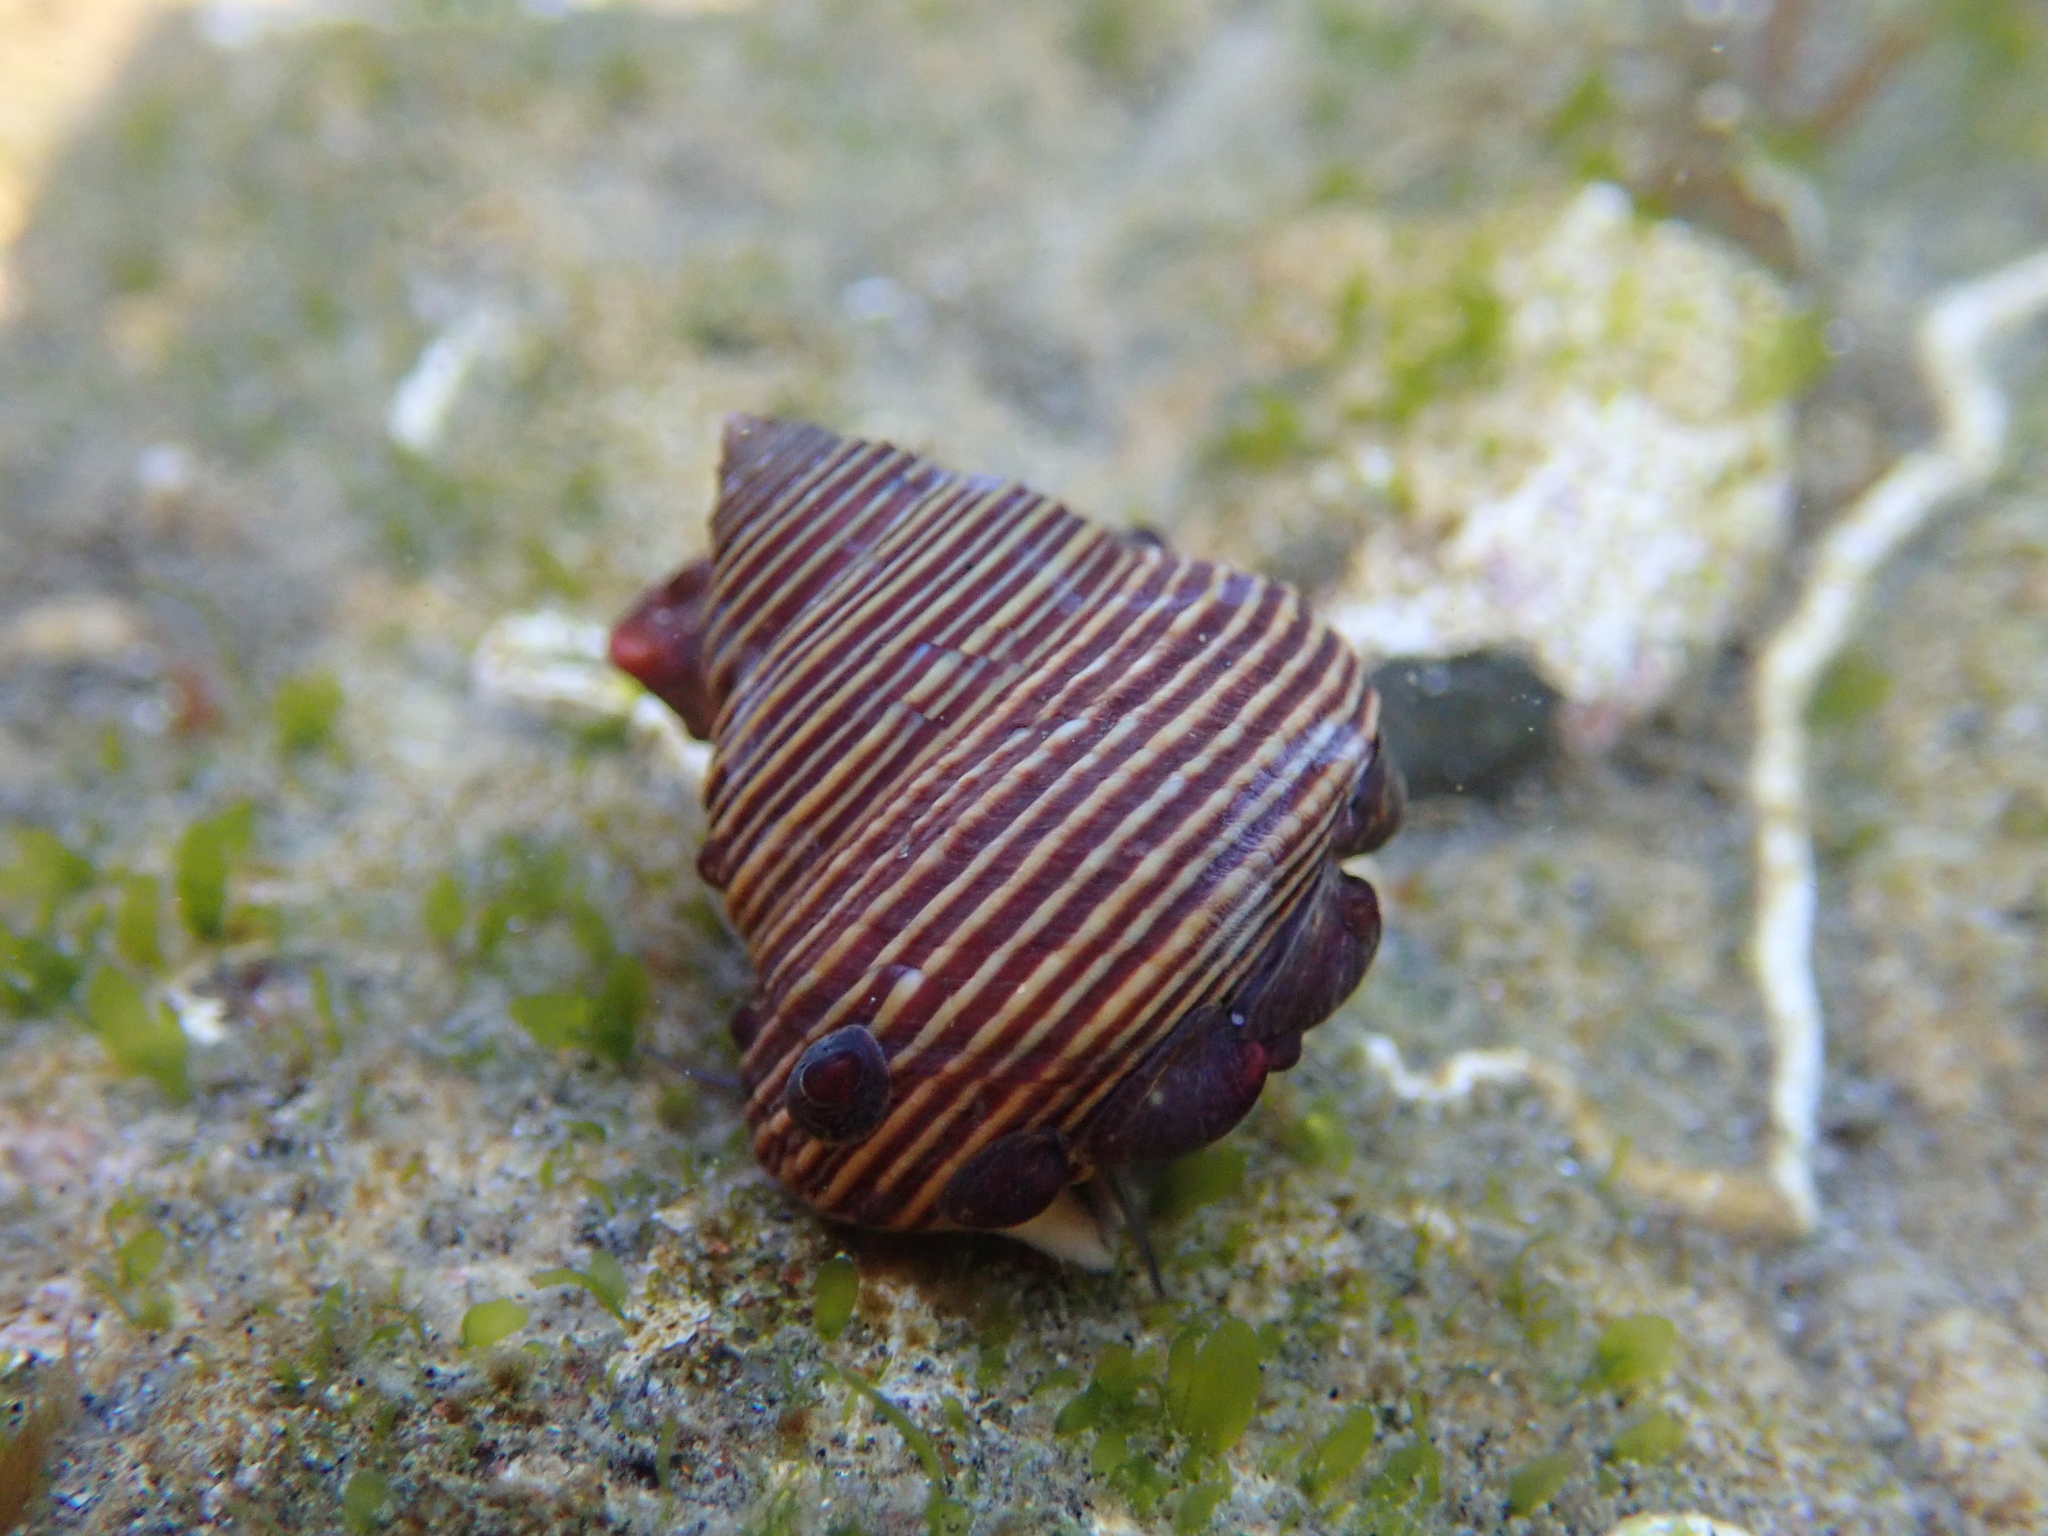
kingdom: Animalia
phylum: Mollusca
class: Gastropoda
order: Trochida
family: Calliostomatidae
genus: Calliostoma
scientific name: Calliostoma ligatum
